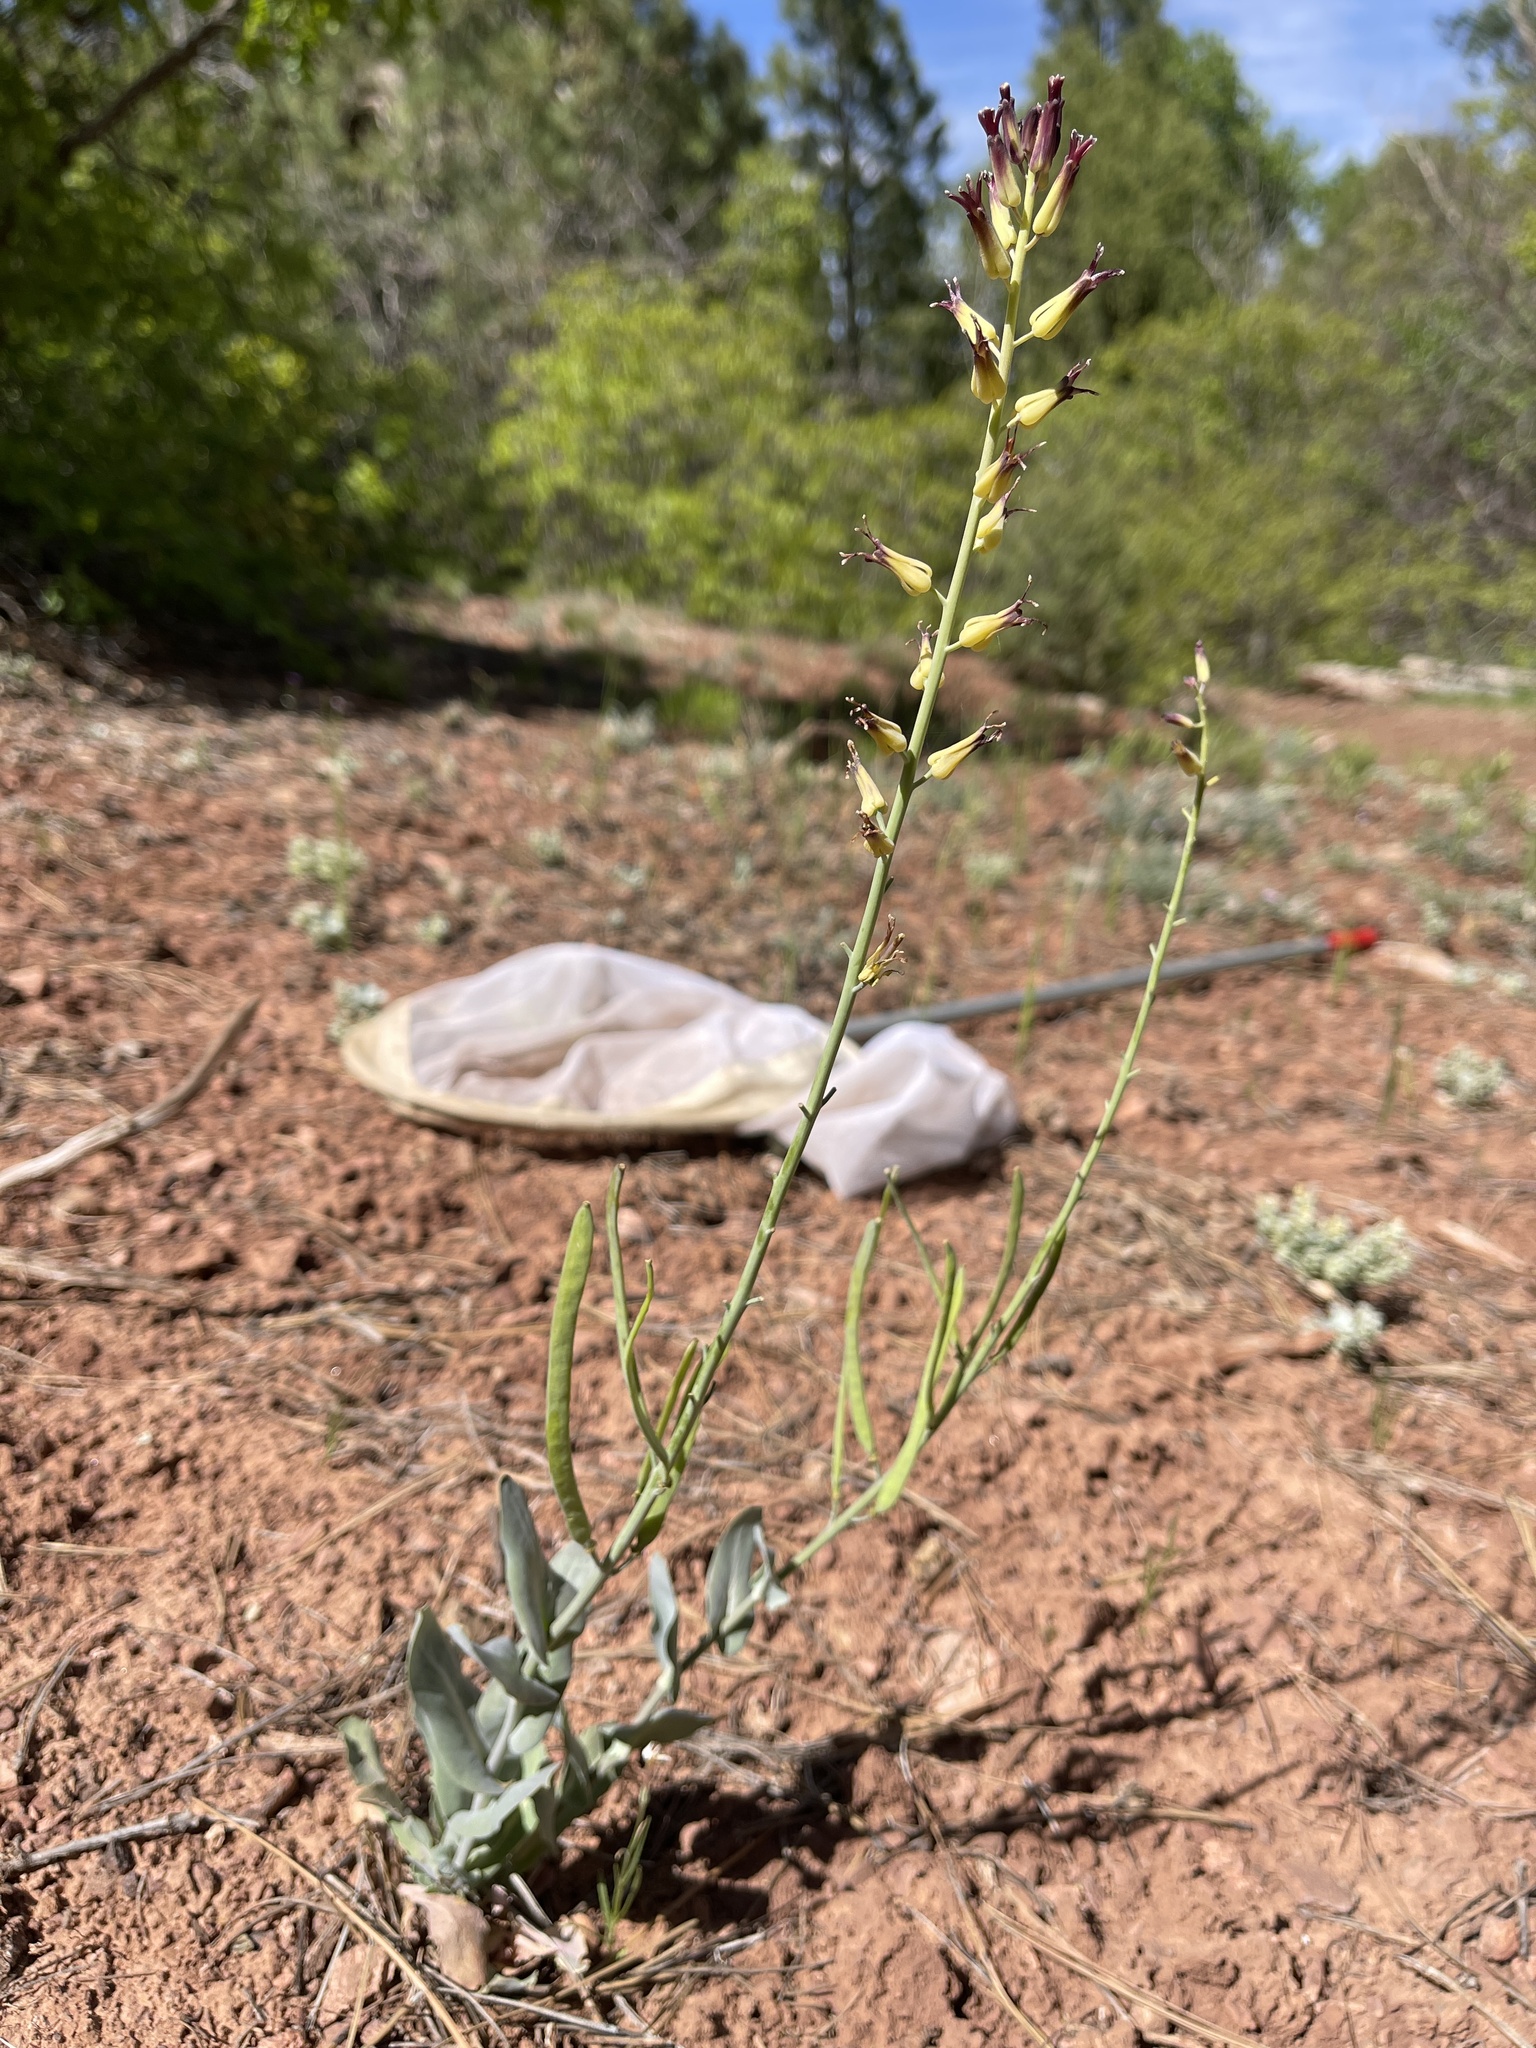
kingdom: Plantae
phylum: Tracheophyta
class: Magnoliopsida
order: Brassicales
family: Brassicaceae
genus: Streptanthus
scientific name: Streptanthus cordatus
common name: Heart-leaf jewel-flower
